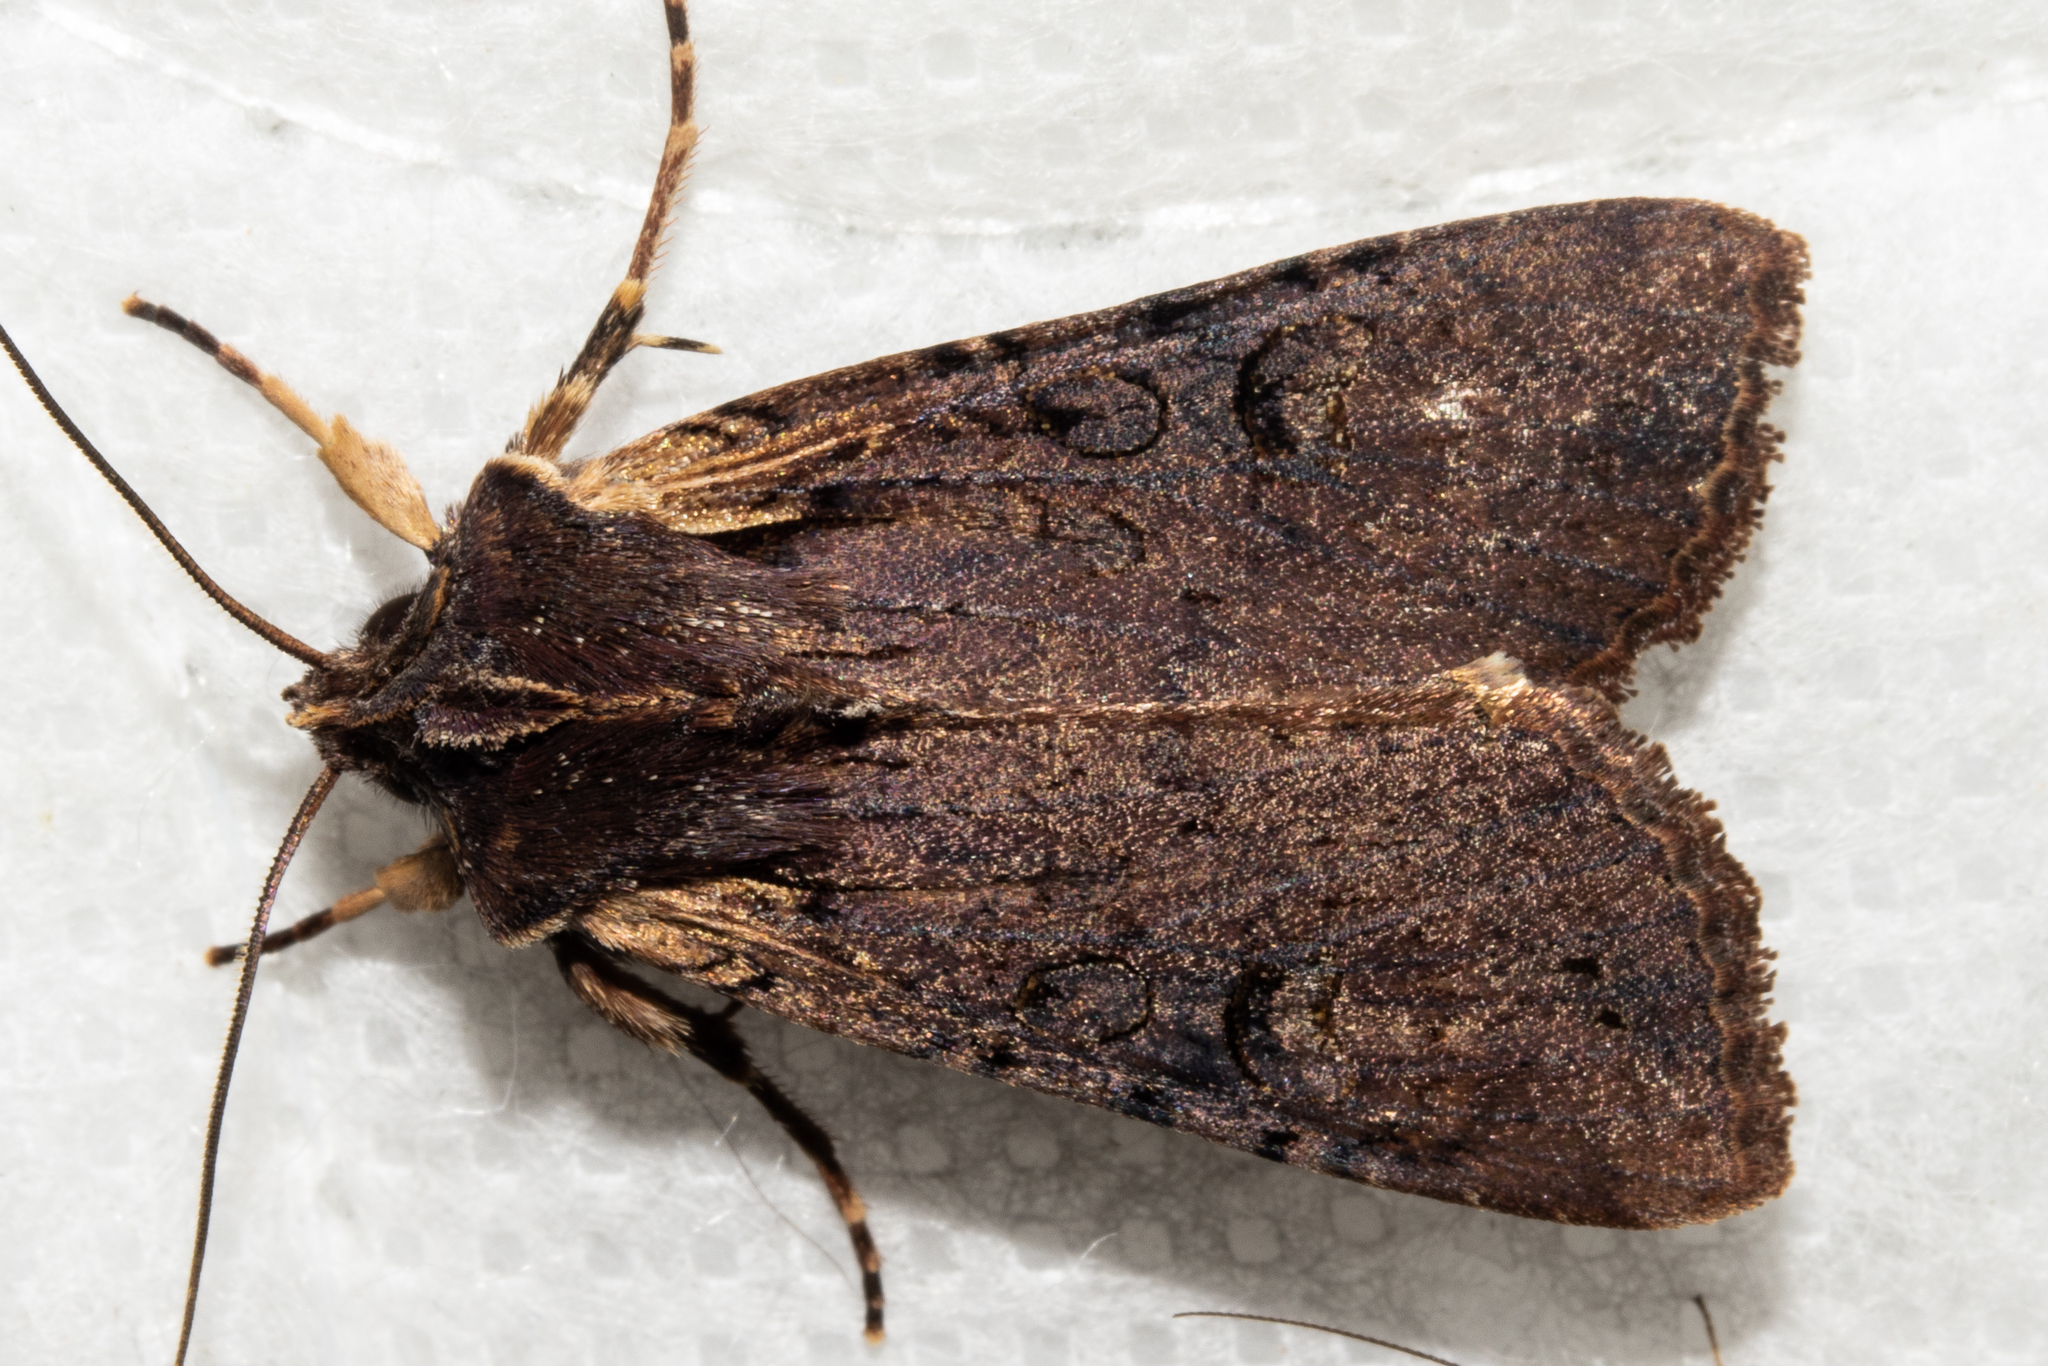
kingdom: Animalia
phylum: Arthropoda
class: Insecta
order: Lepidoptera
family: Noctuidae
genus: Ichneutica
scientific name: Ichneutica omoplaca
